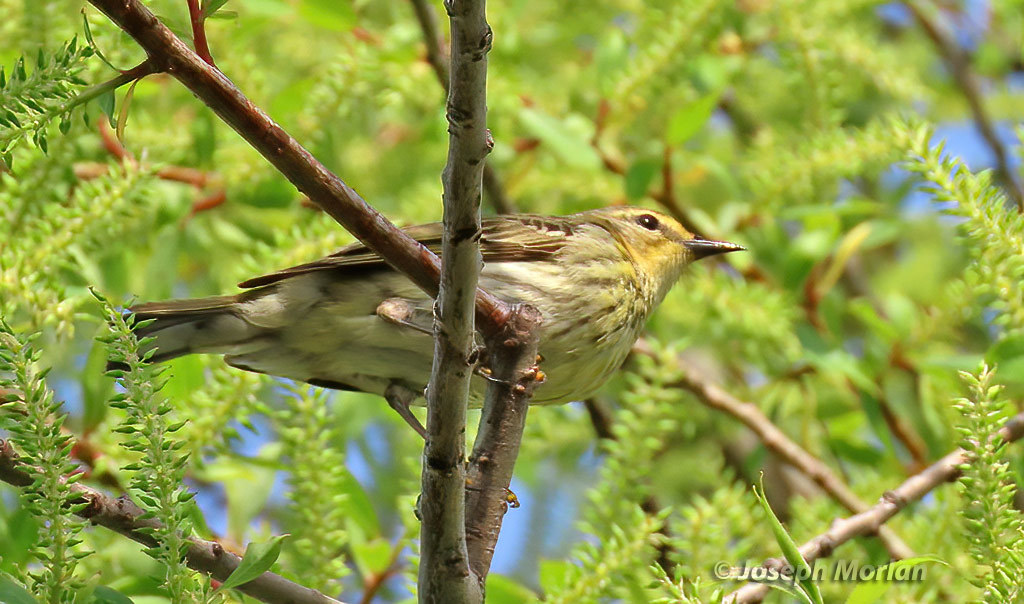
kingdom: Animalia
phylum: Chordata
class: Aves
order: Passeriformes
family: Parulidae
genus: Setophaga
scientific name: Setophaga tigrina
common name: Cape may warbler
